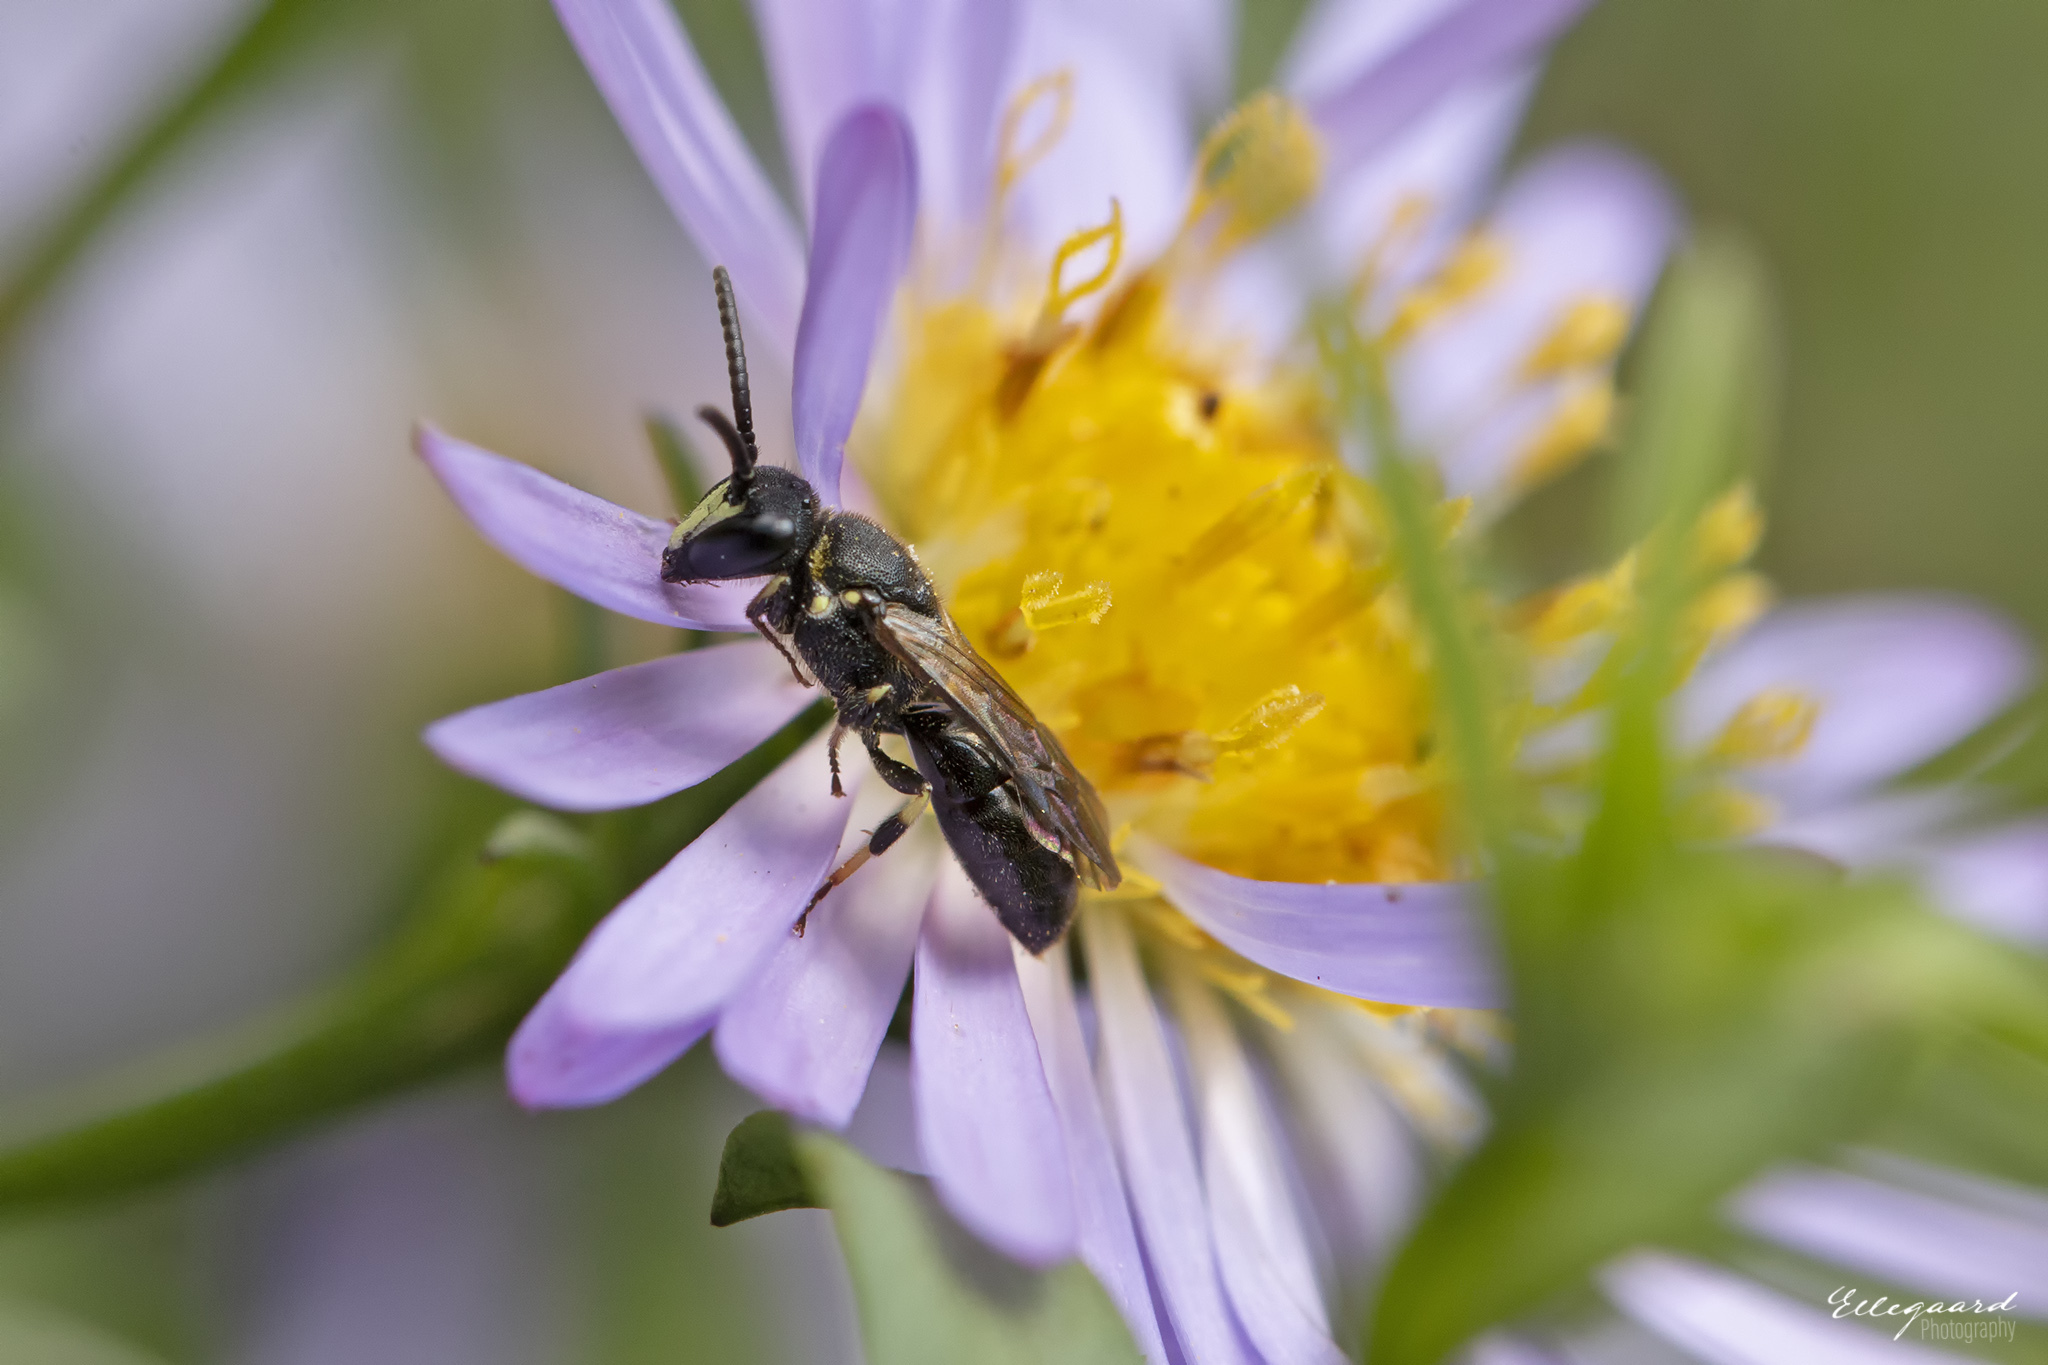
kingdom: Animalia
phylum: Arthropoda
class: Insecta
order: Hymenoptera
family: Colletidae
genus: Hylaeus
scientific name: Hylaeus communis
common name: Common yellow-face bee
